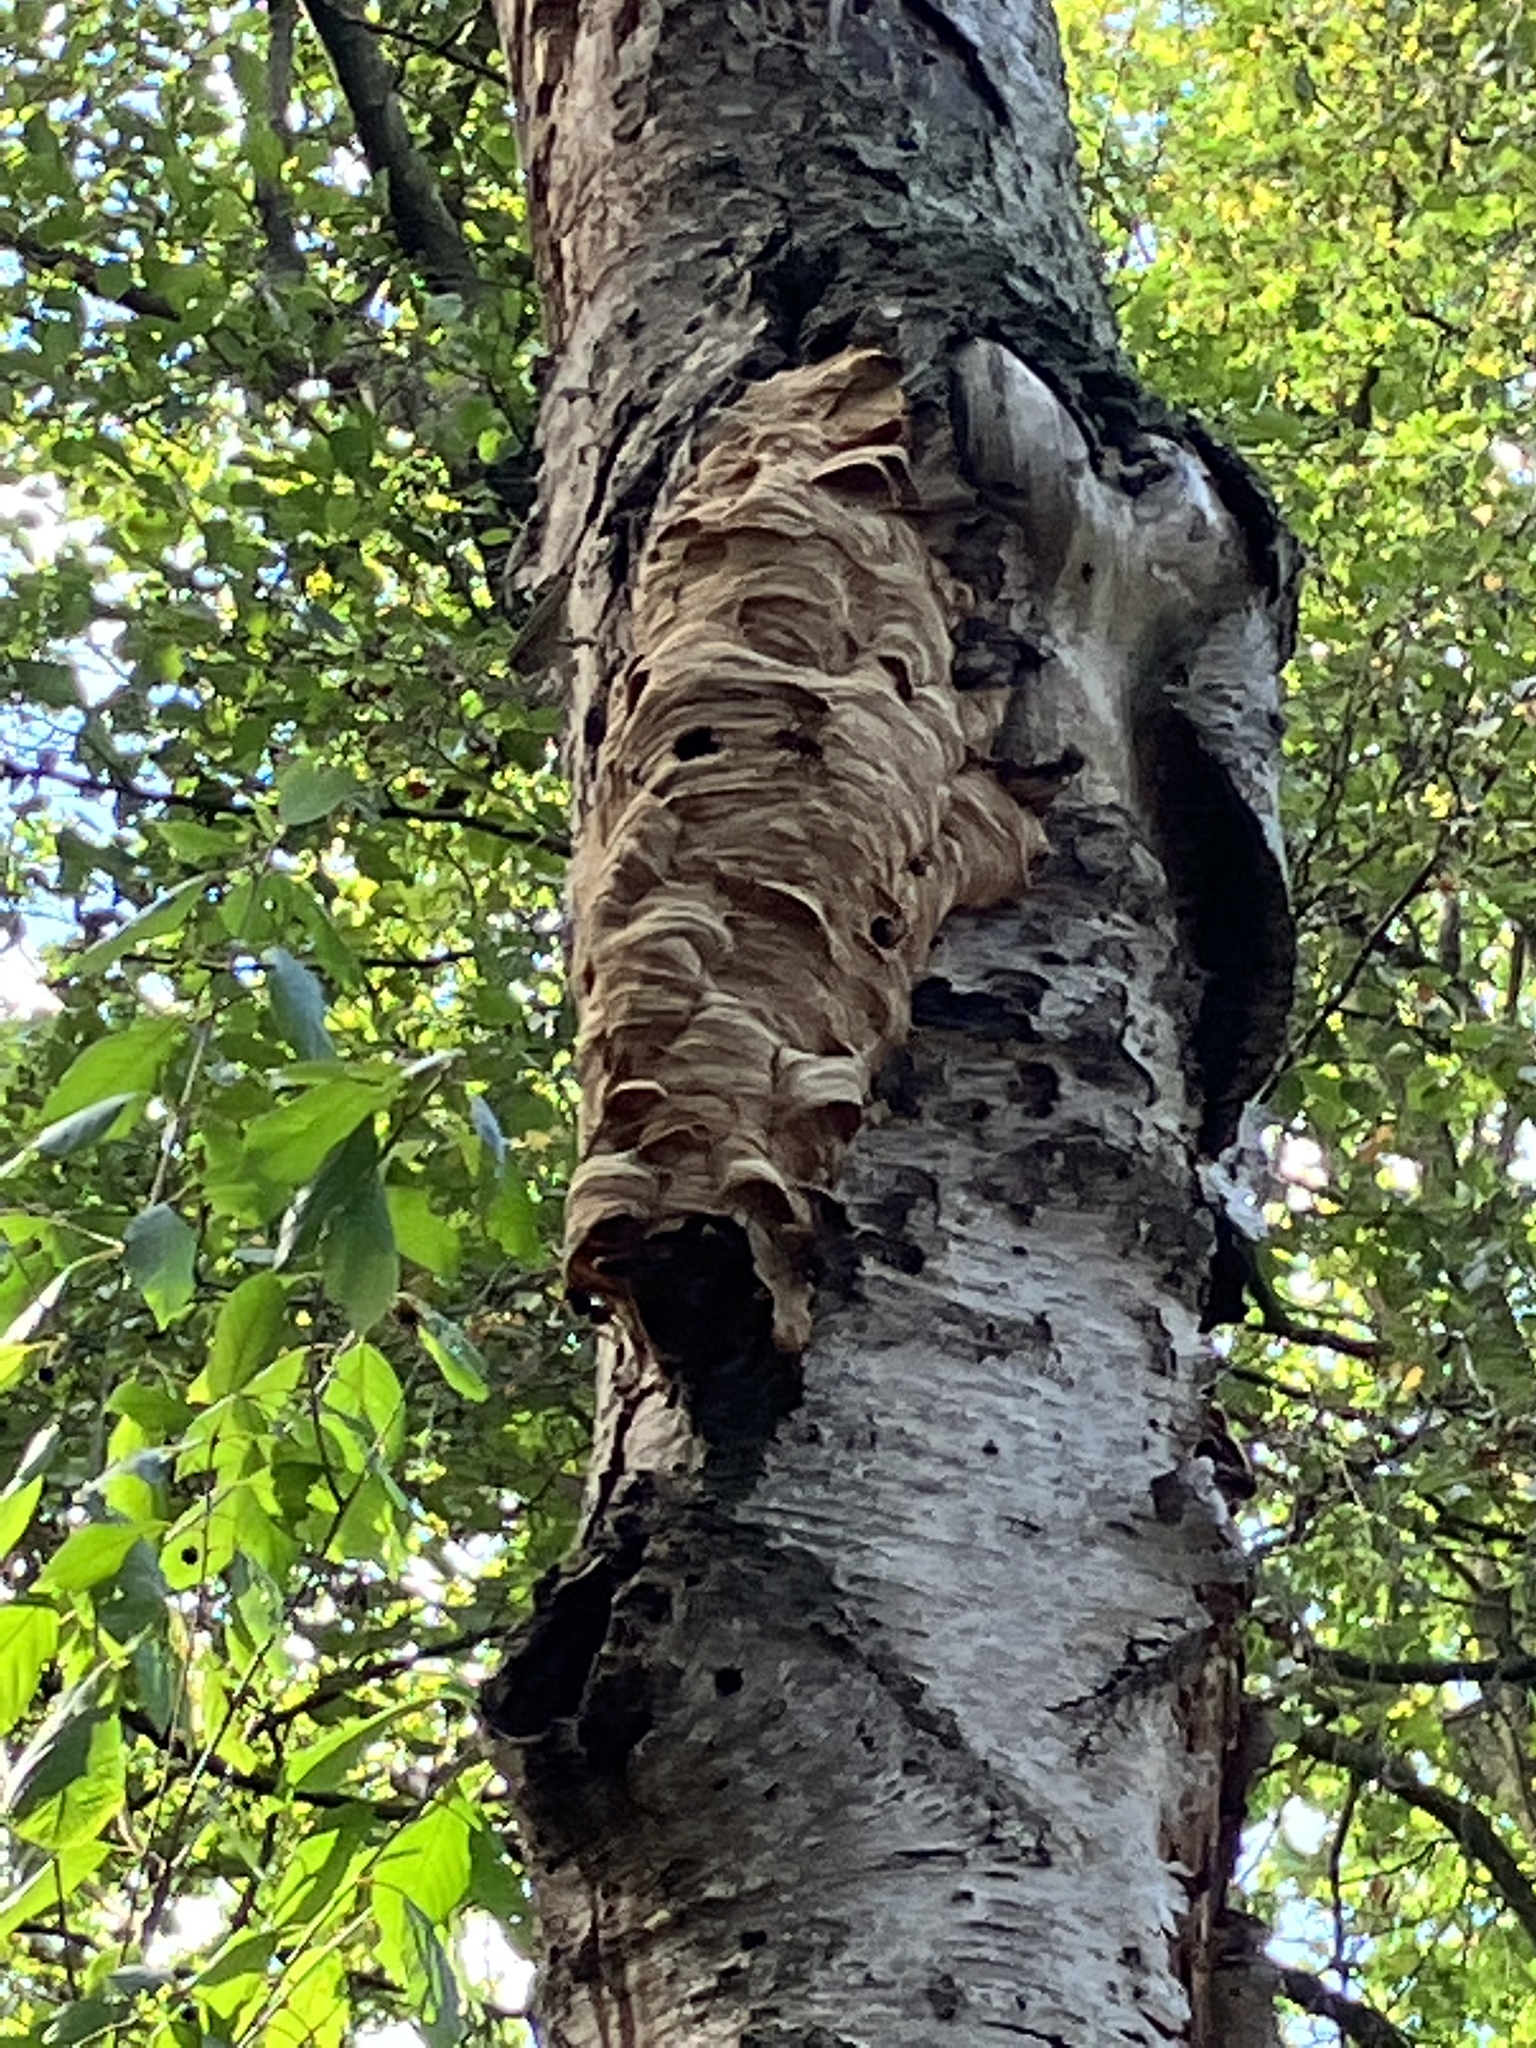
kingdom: Animalia
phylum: Arthropoda
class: Insecta
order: Hymenoptera
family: Vespidae
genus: Vespa
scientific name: Vespa crabro
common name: Hornet
